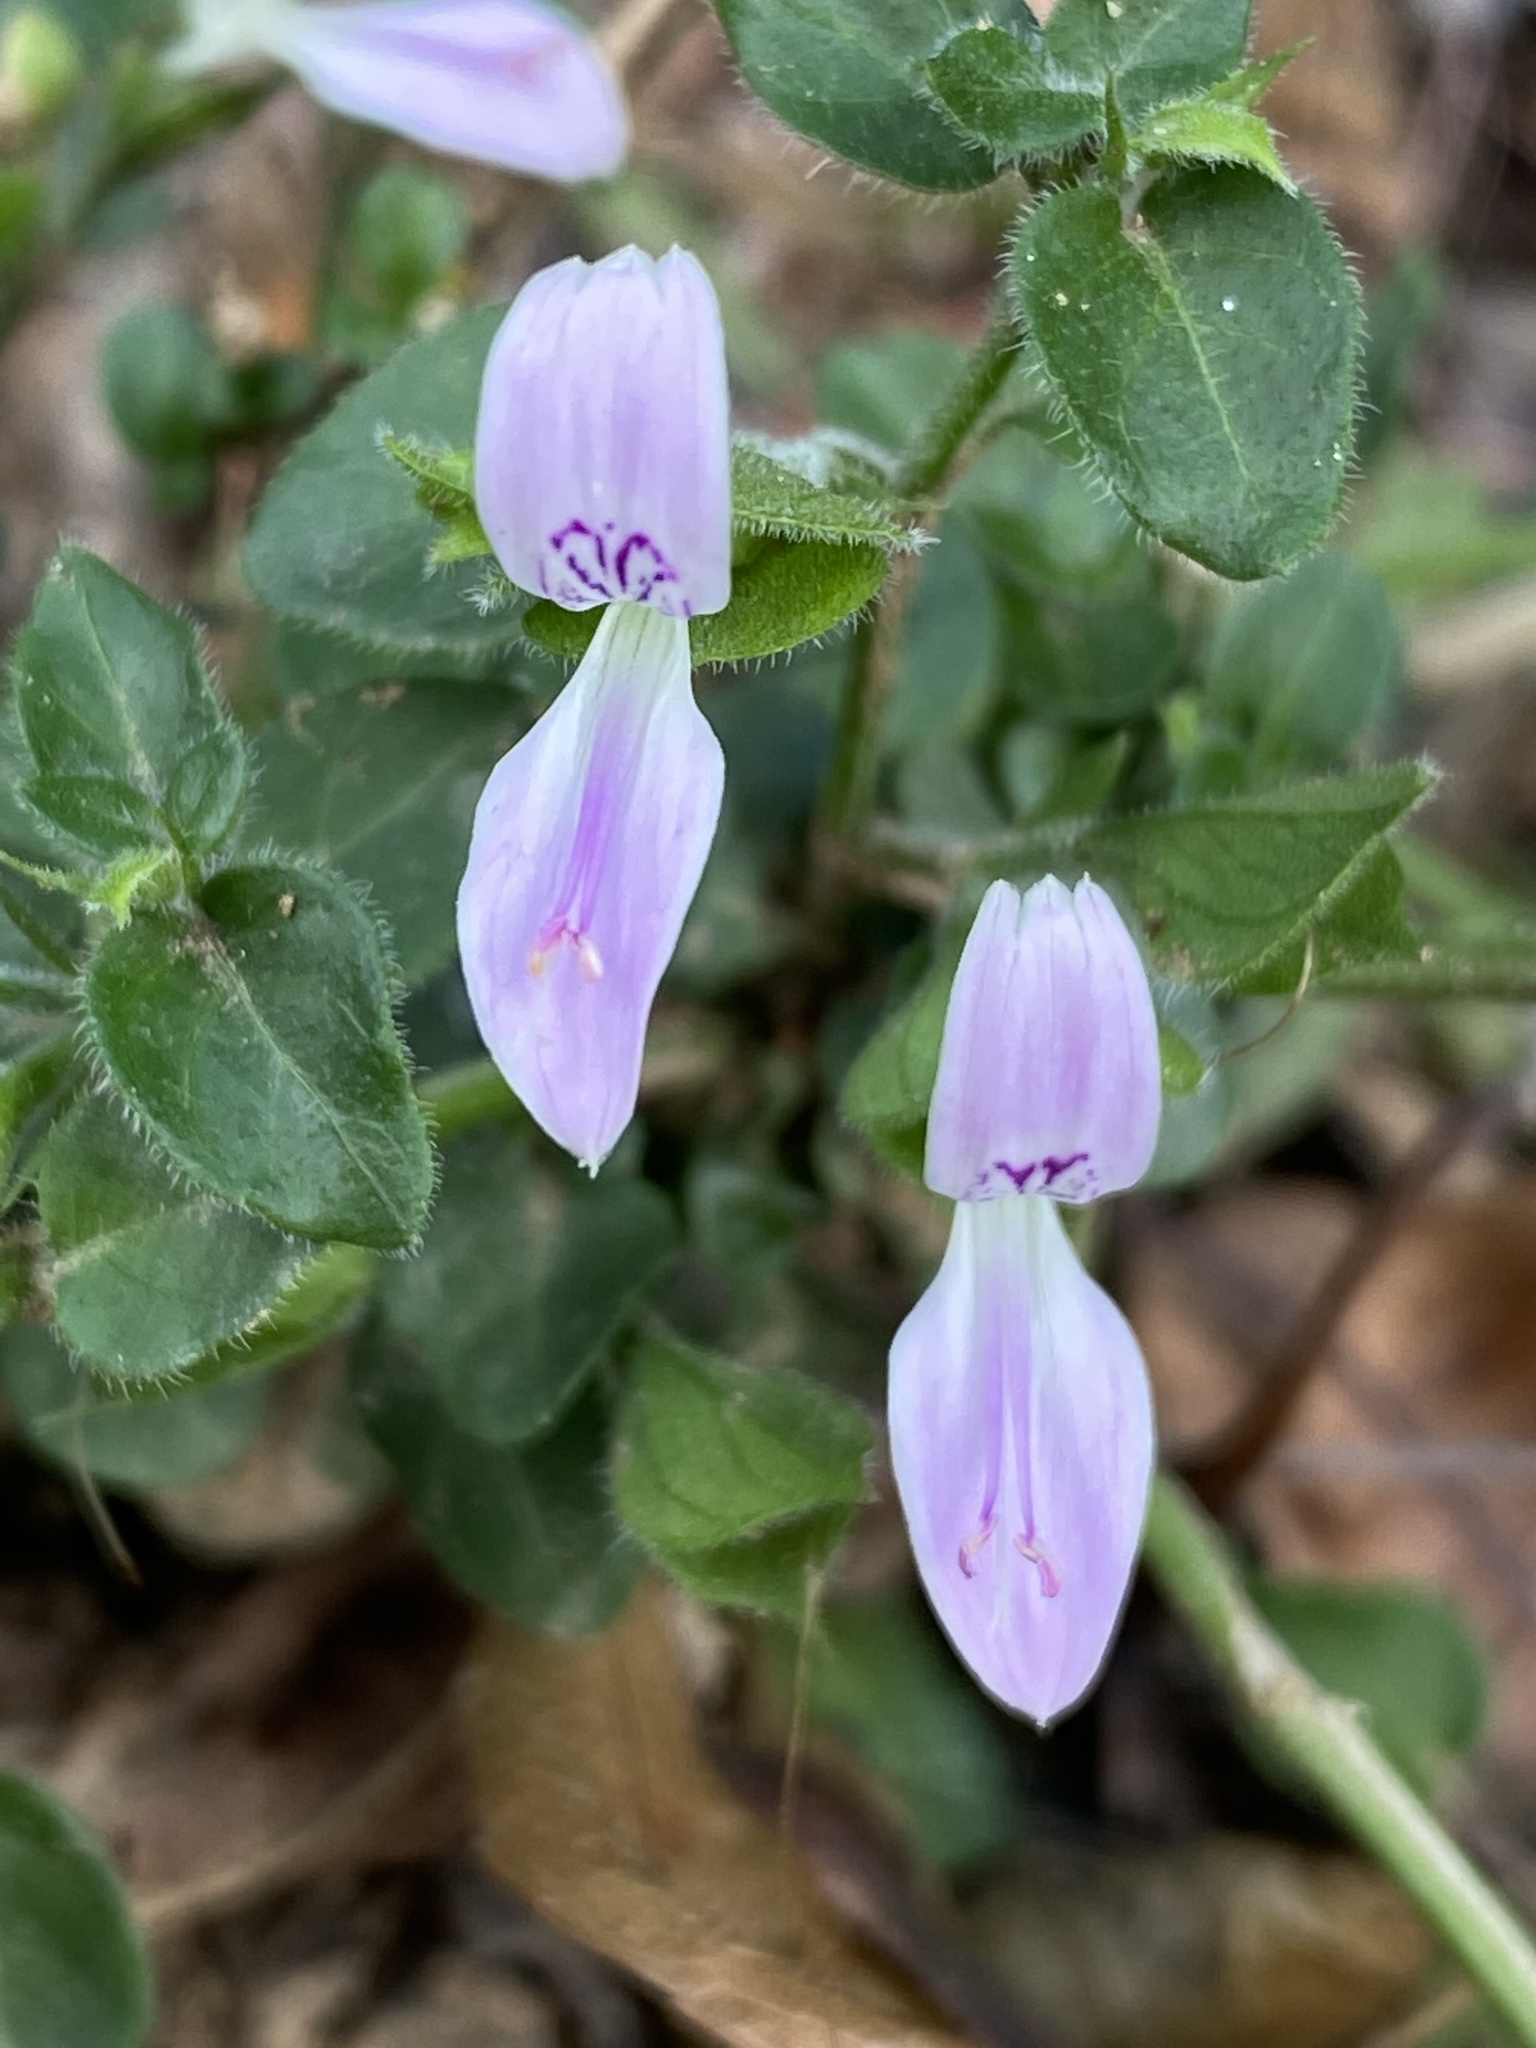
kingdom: Plantae
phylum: Tracheophyta
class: Magnoliopsida
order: Lamiales
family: Acanthaceae
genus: Dicliptera
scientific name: Dicliptera capensis
